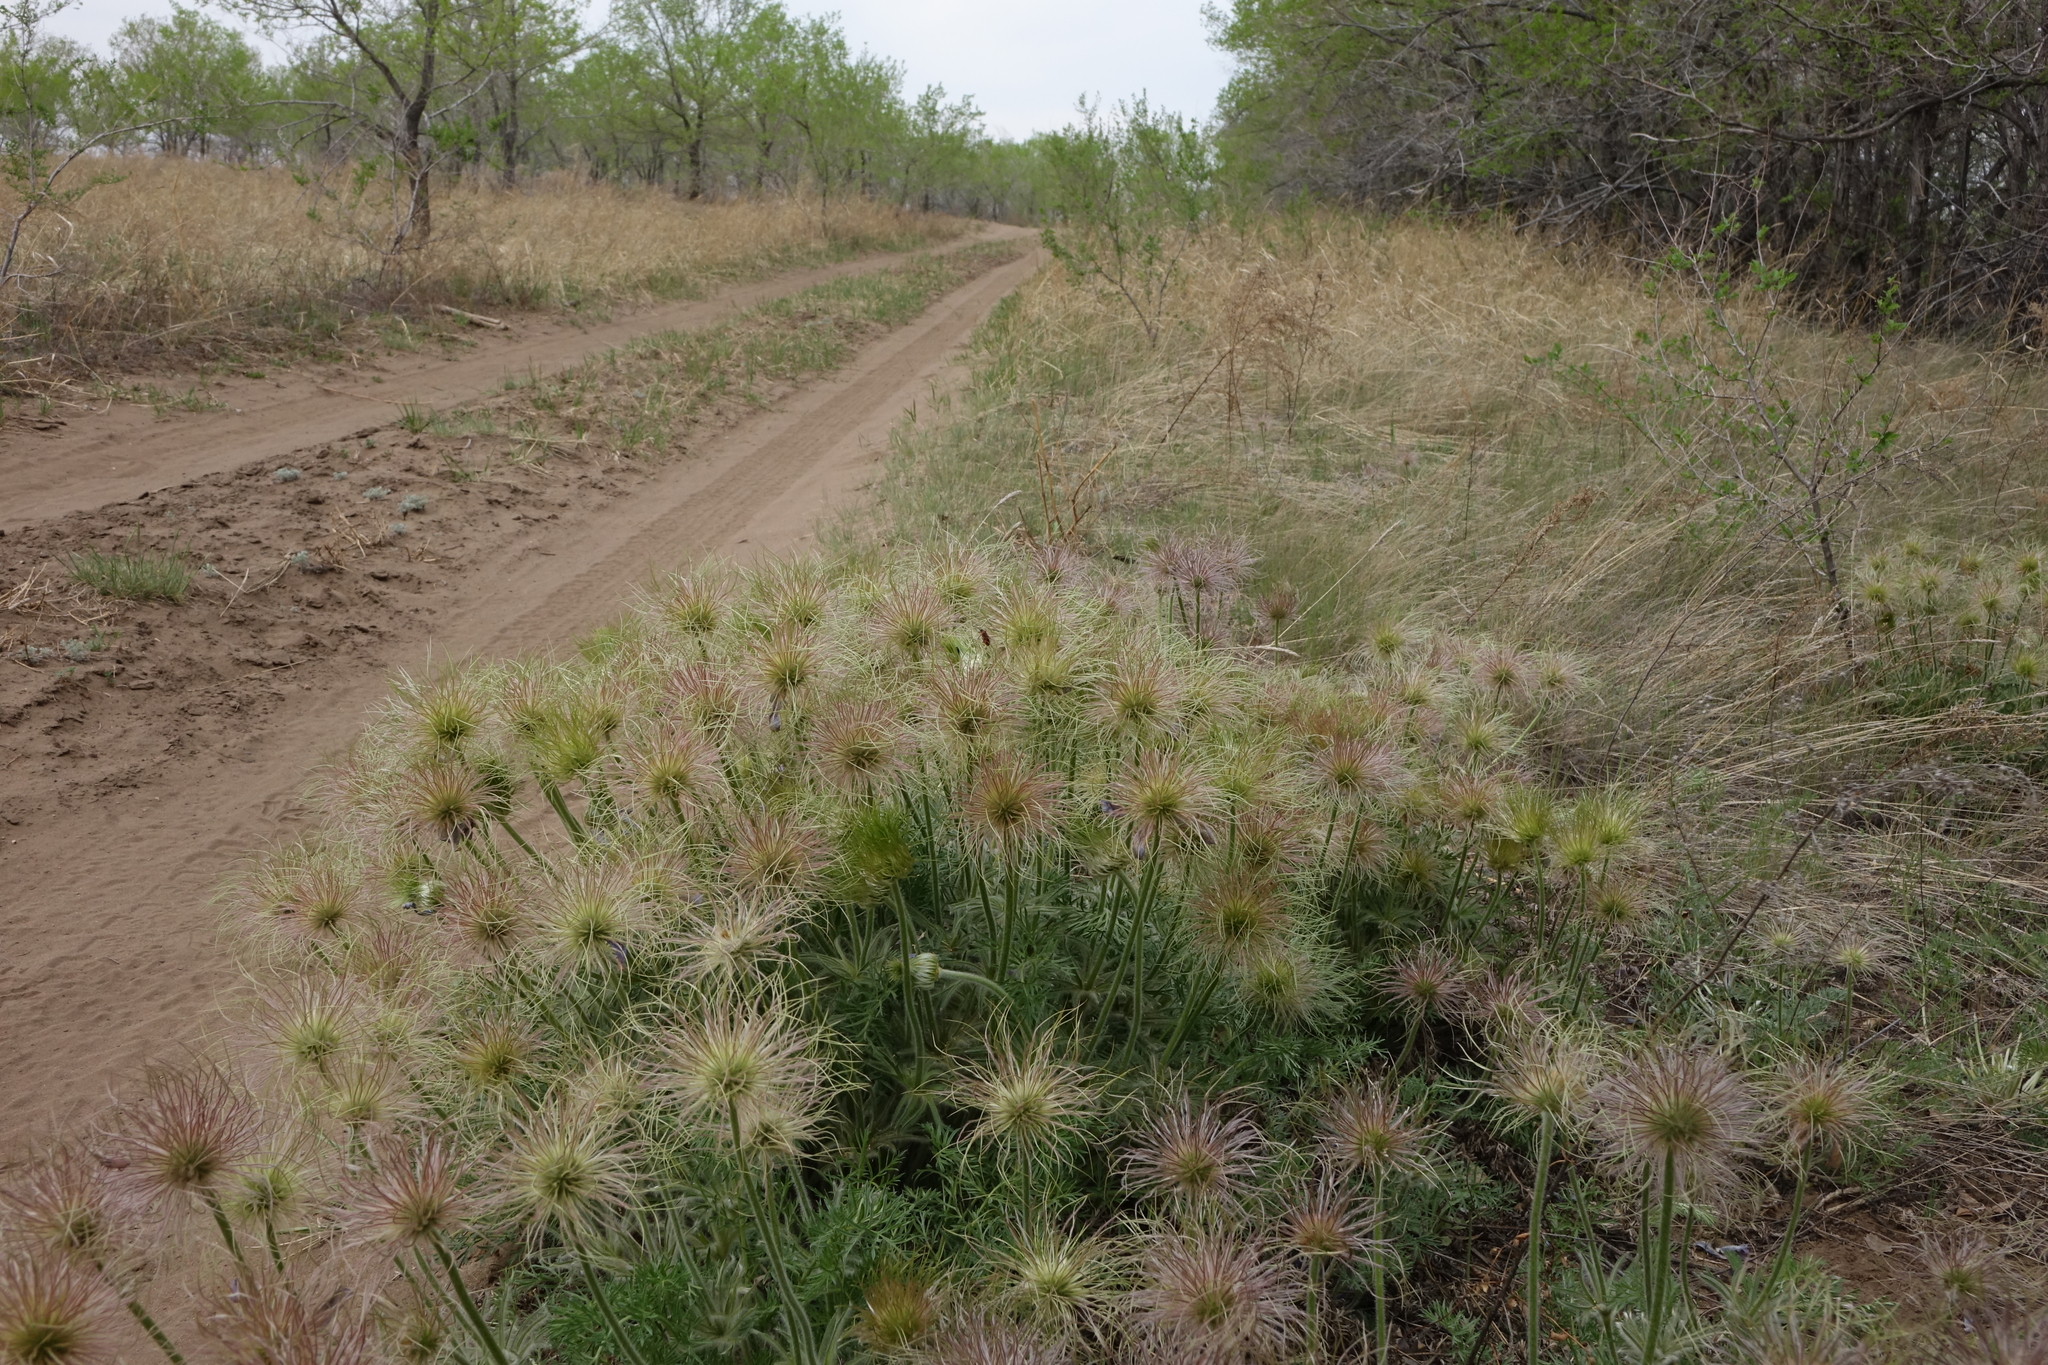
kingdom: Plantae
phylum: Tracheophyta
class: Magnoliopsida
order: Ranunculales
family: Ranunculaceae
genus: Pulsatilla
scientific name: Pulsatilla turczaninovii
